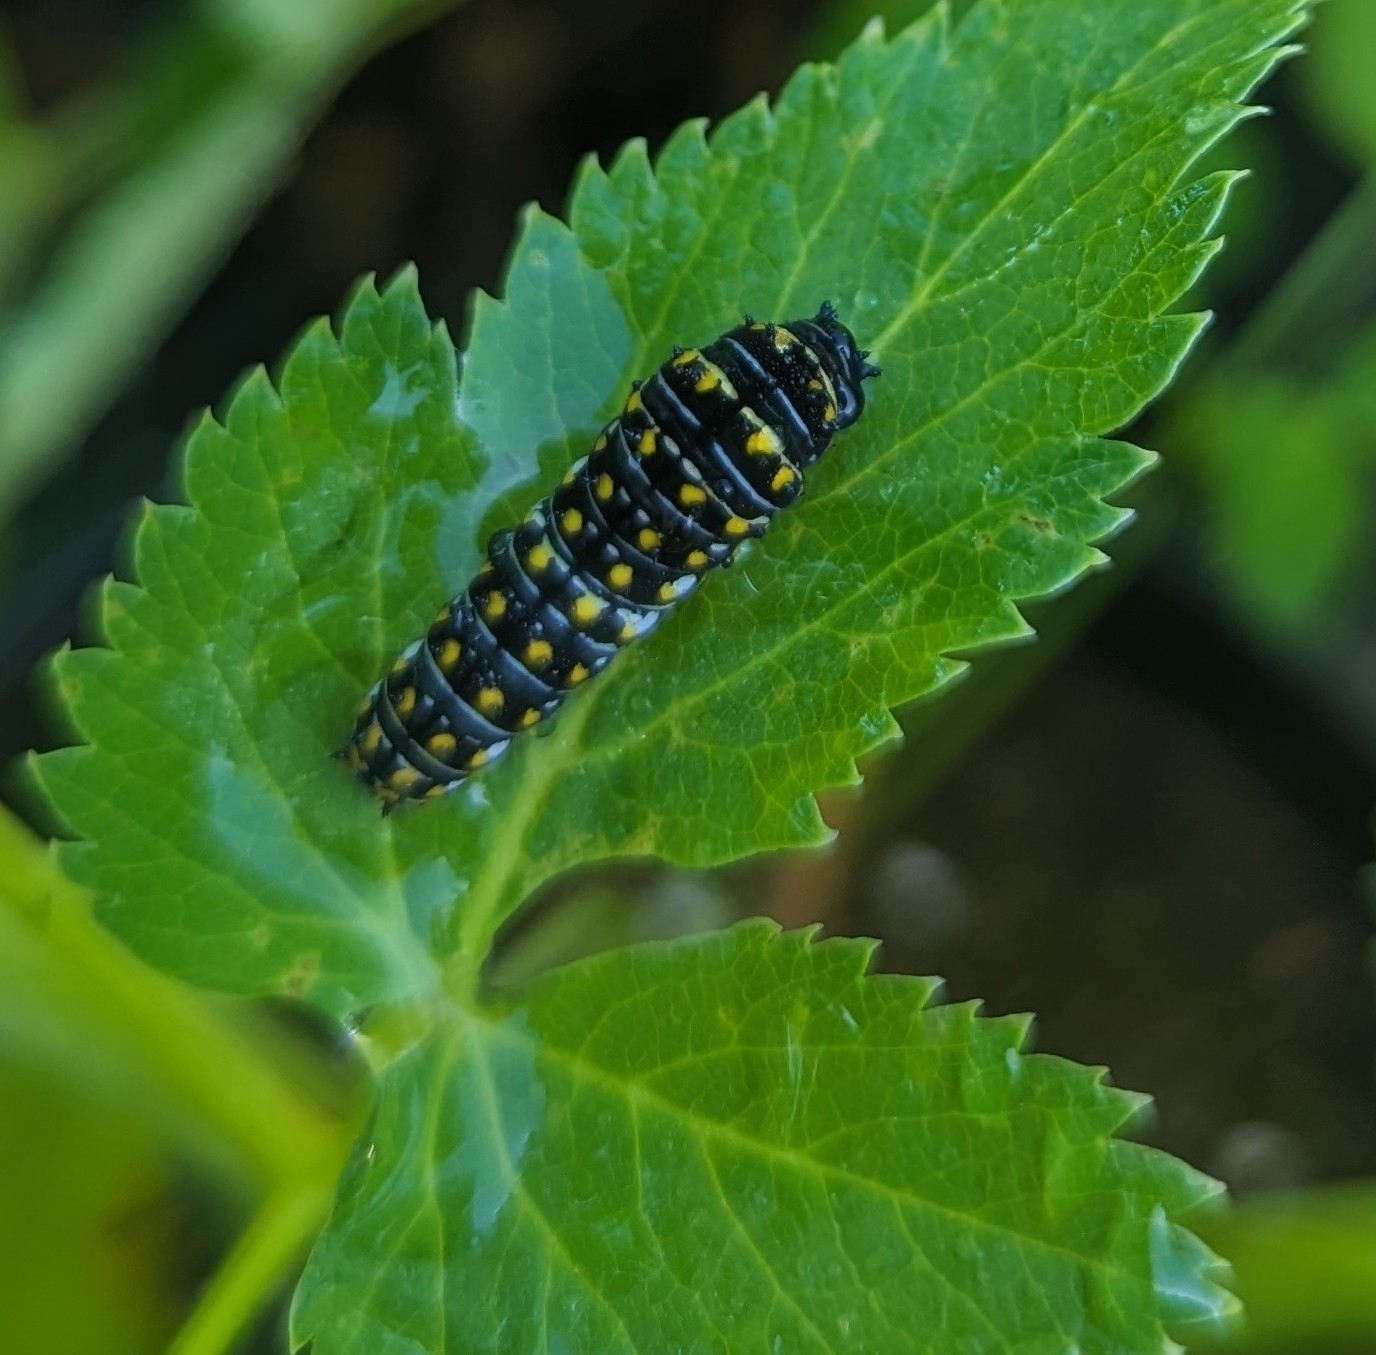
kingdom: Animalia
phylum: Arthropoda
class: Insecta
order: Lepidoptera
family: Papilionidae
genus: Papilio
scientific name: Papilio polyxenes
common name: Black swallowtail
